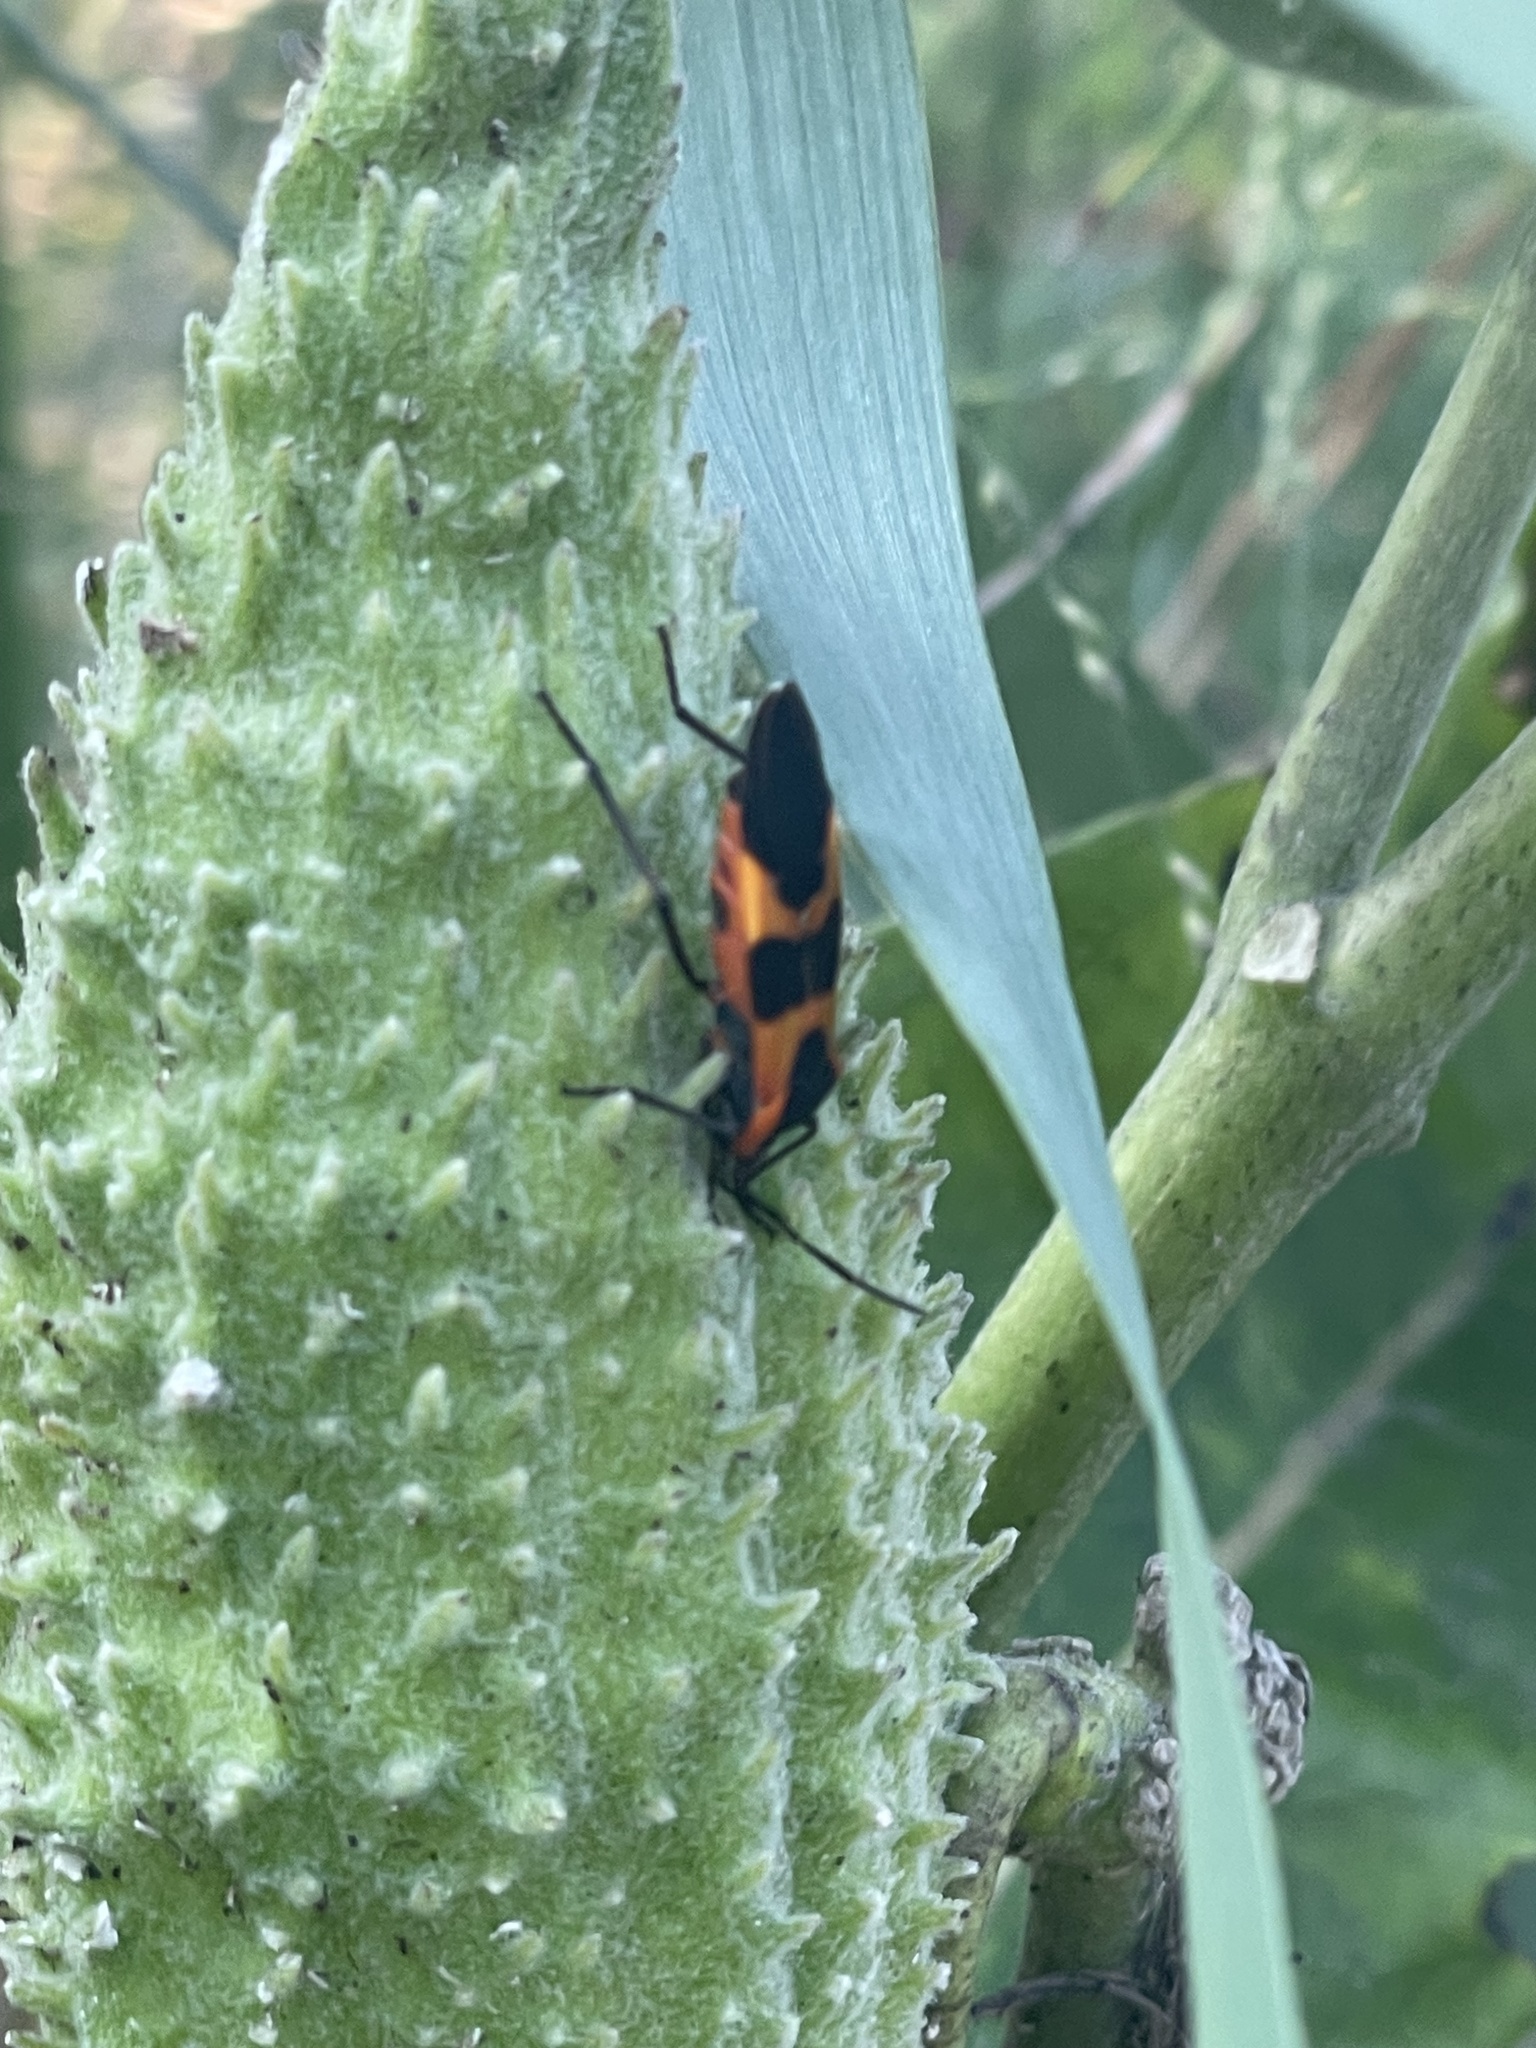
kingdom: Animalia
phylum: Arthropoda
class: Insecta
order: Hemiptera
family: Lygaeidae
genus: Oncopeltus
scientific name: Oncopeltus fasciatus
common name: Large milkweed bug
